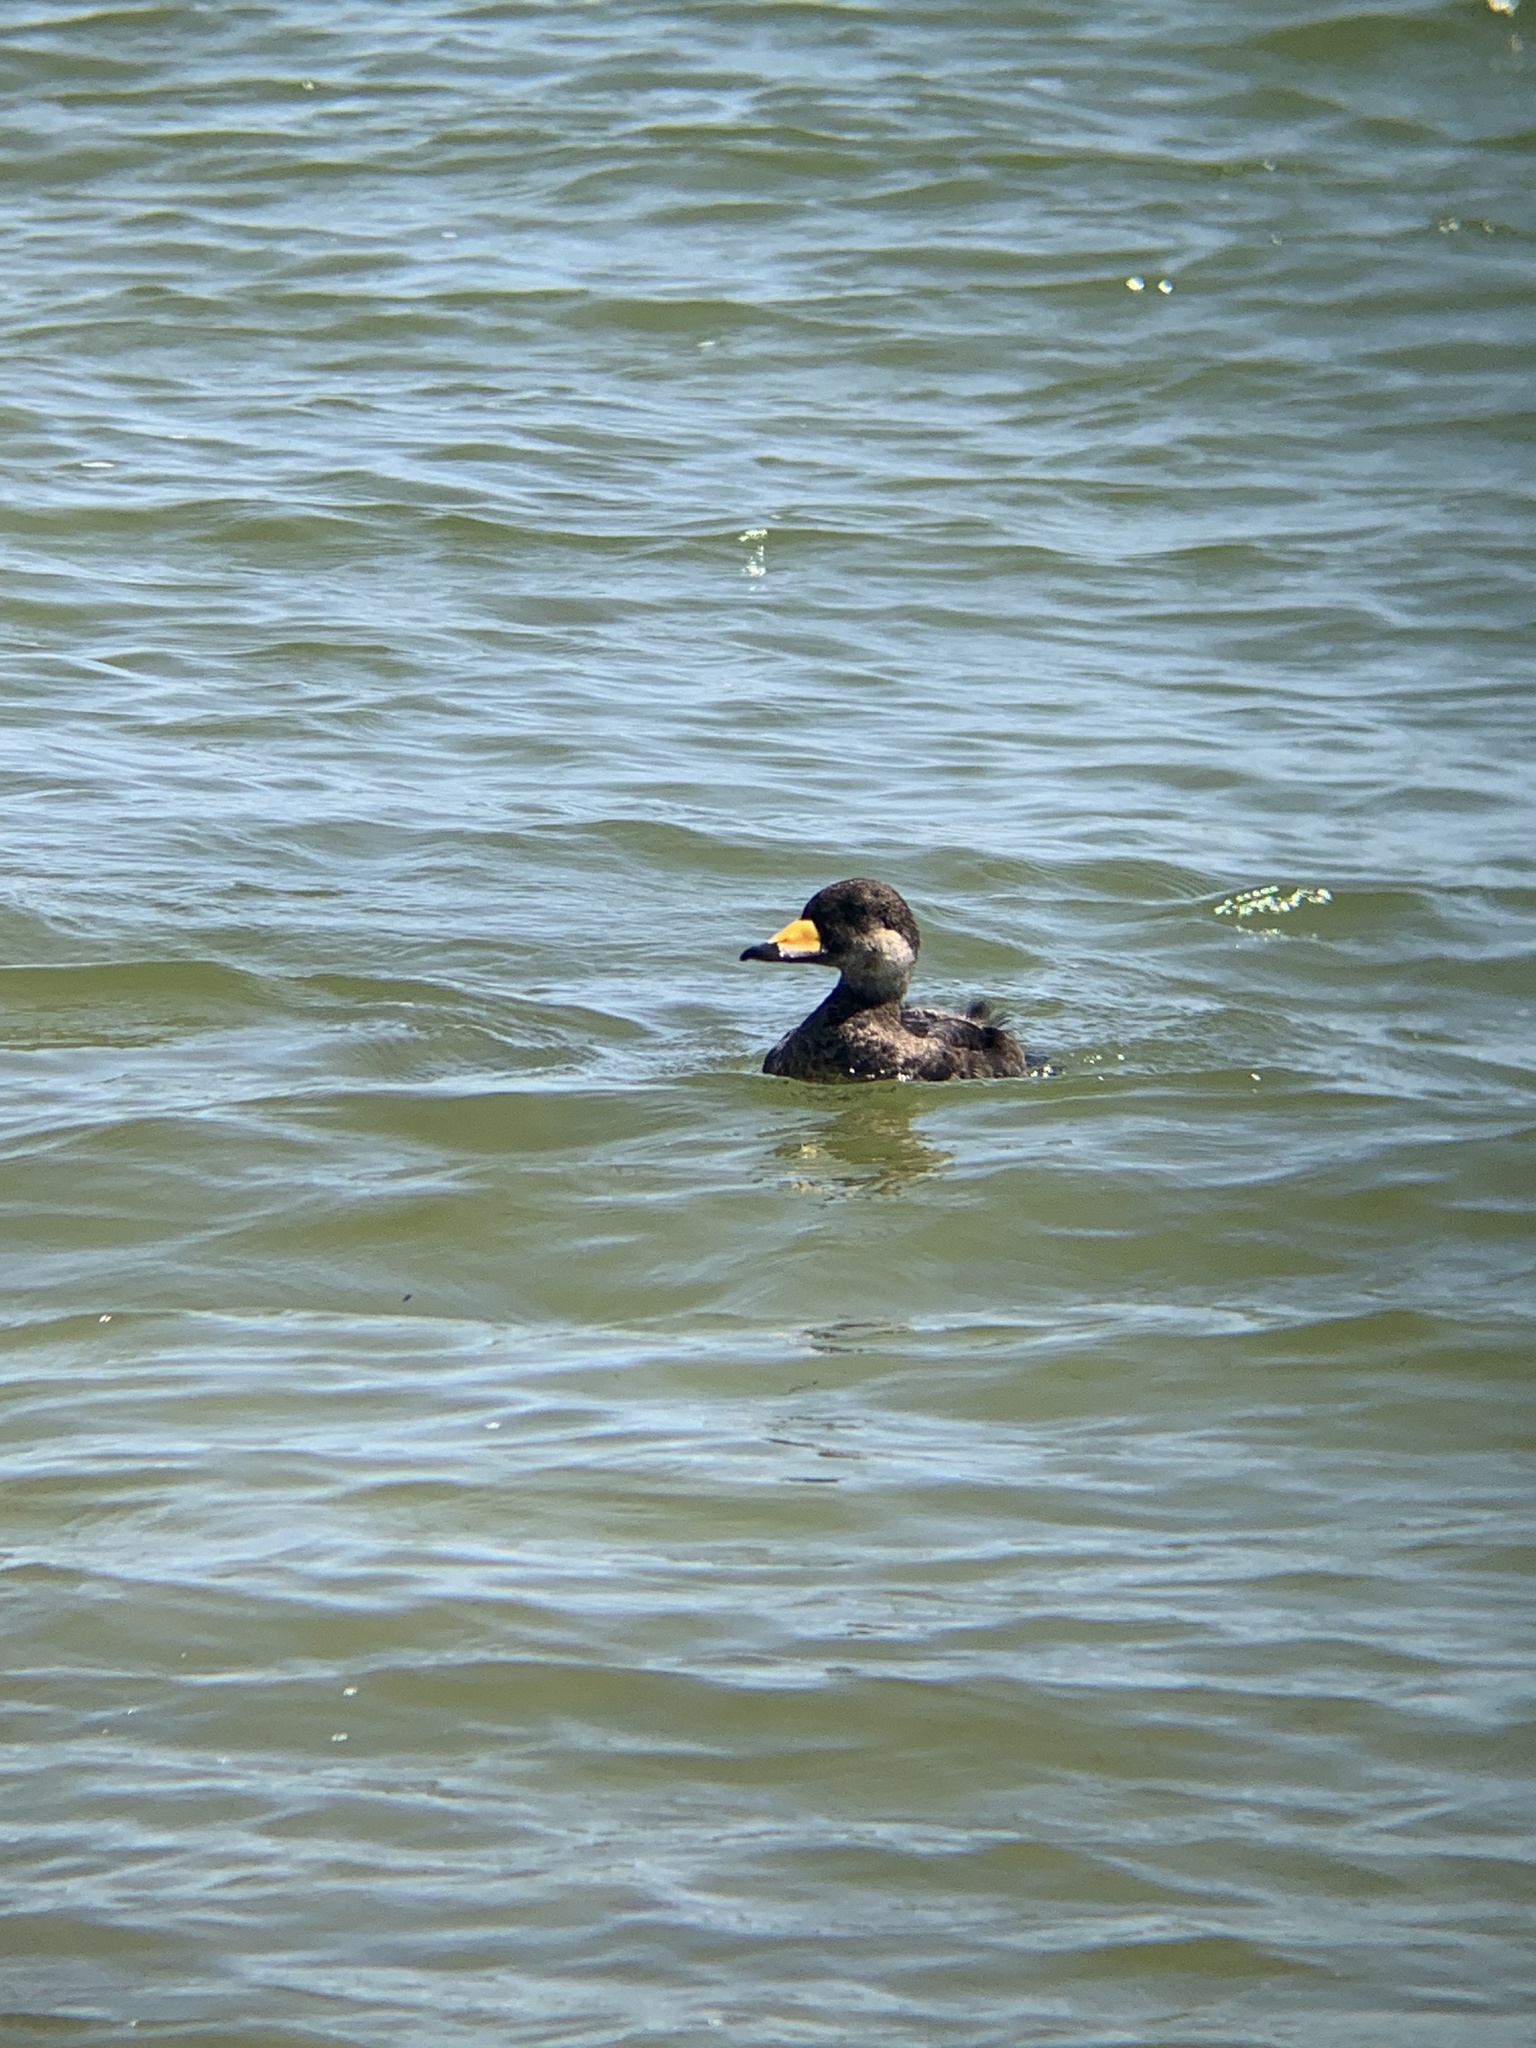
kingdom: Animalia
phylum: Chordata
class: Aves
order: Anseriformes
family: Anatidae
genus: Melanitta
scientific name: Melanitta americana
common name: Black scoter
